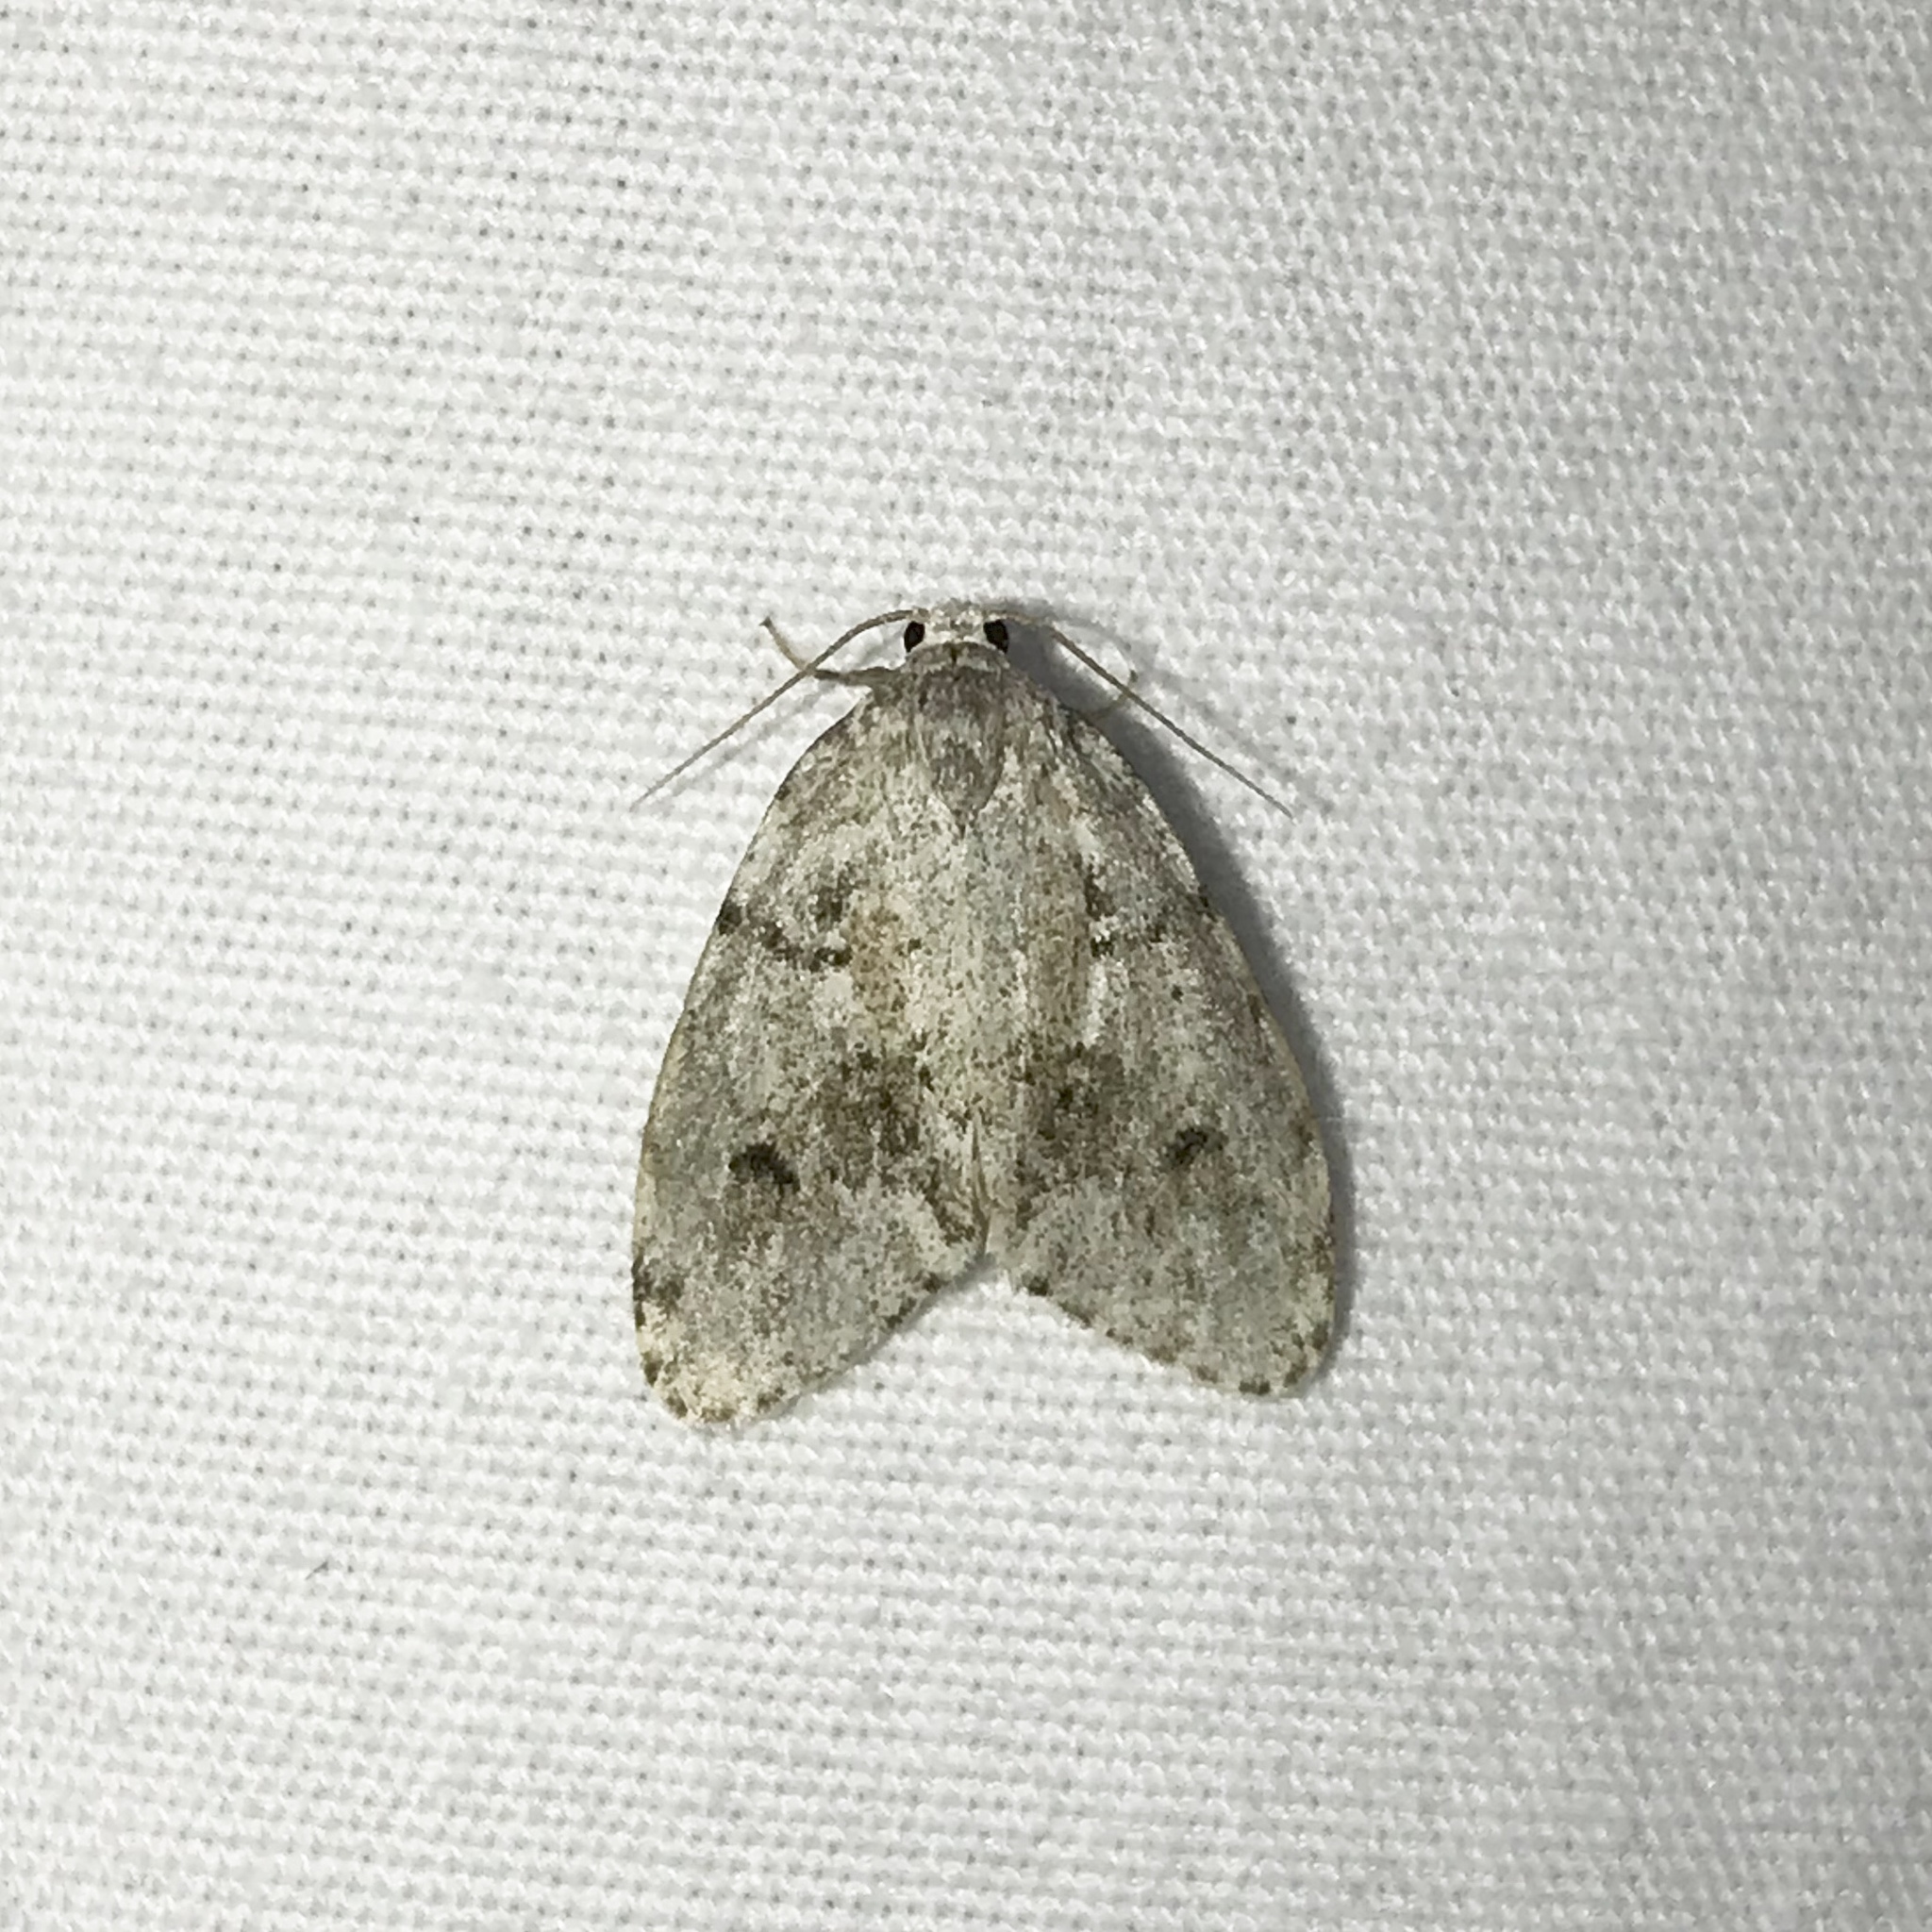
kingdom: Animalia
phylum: Arthropoda
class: Insecta
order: Lepidoptera
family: Erebidae
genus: Clemensia
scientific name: Clemensia albata
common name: Little white lichen moth
